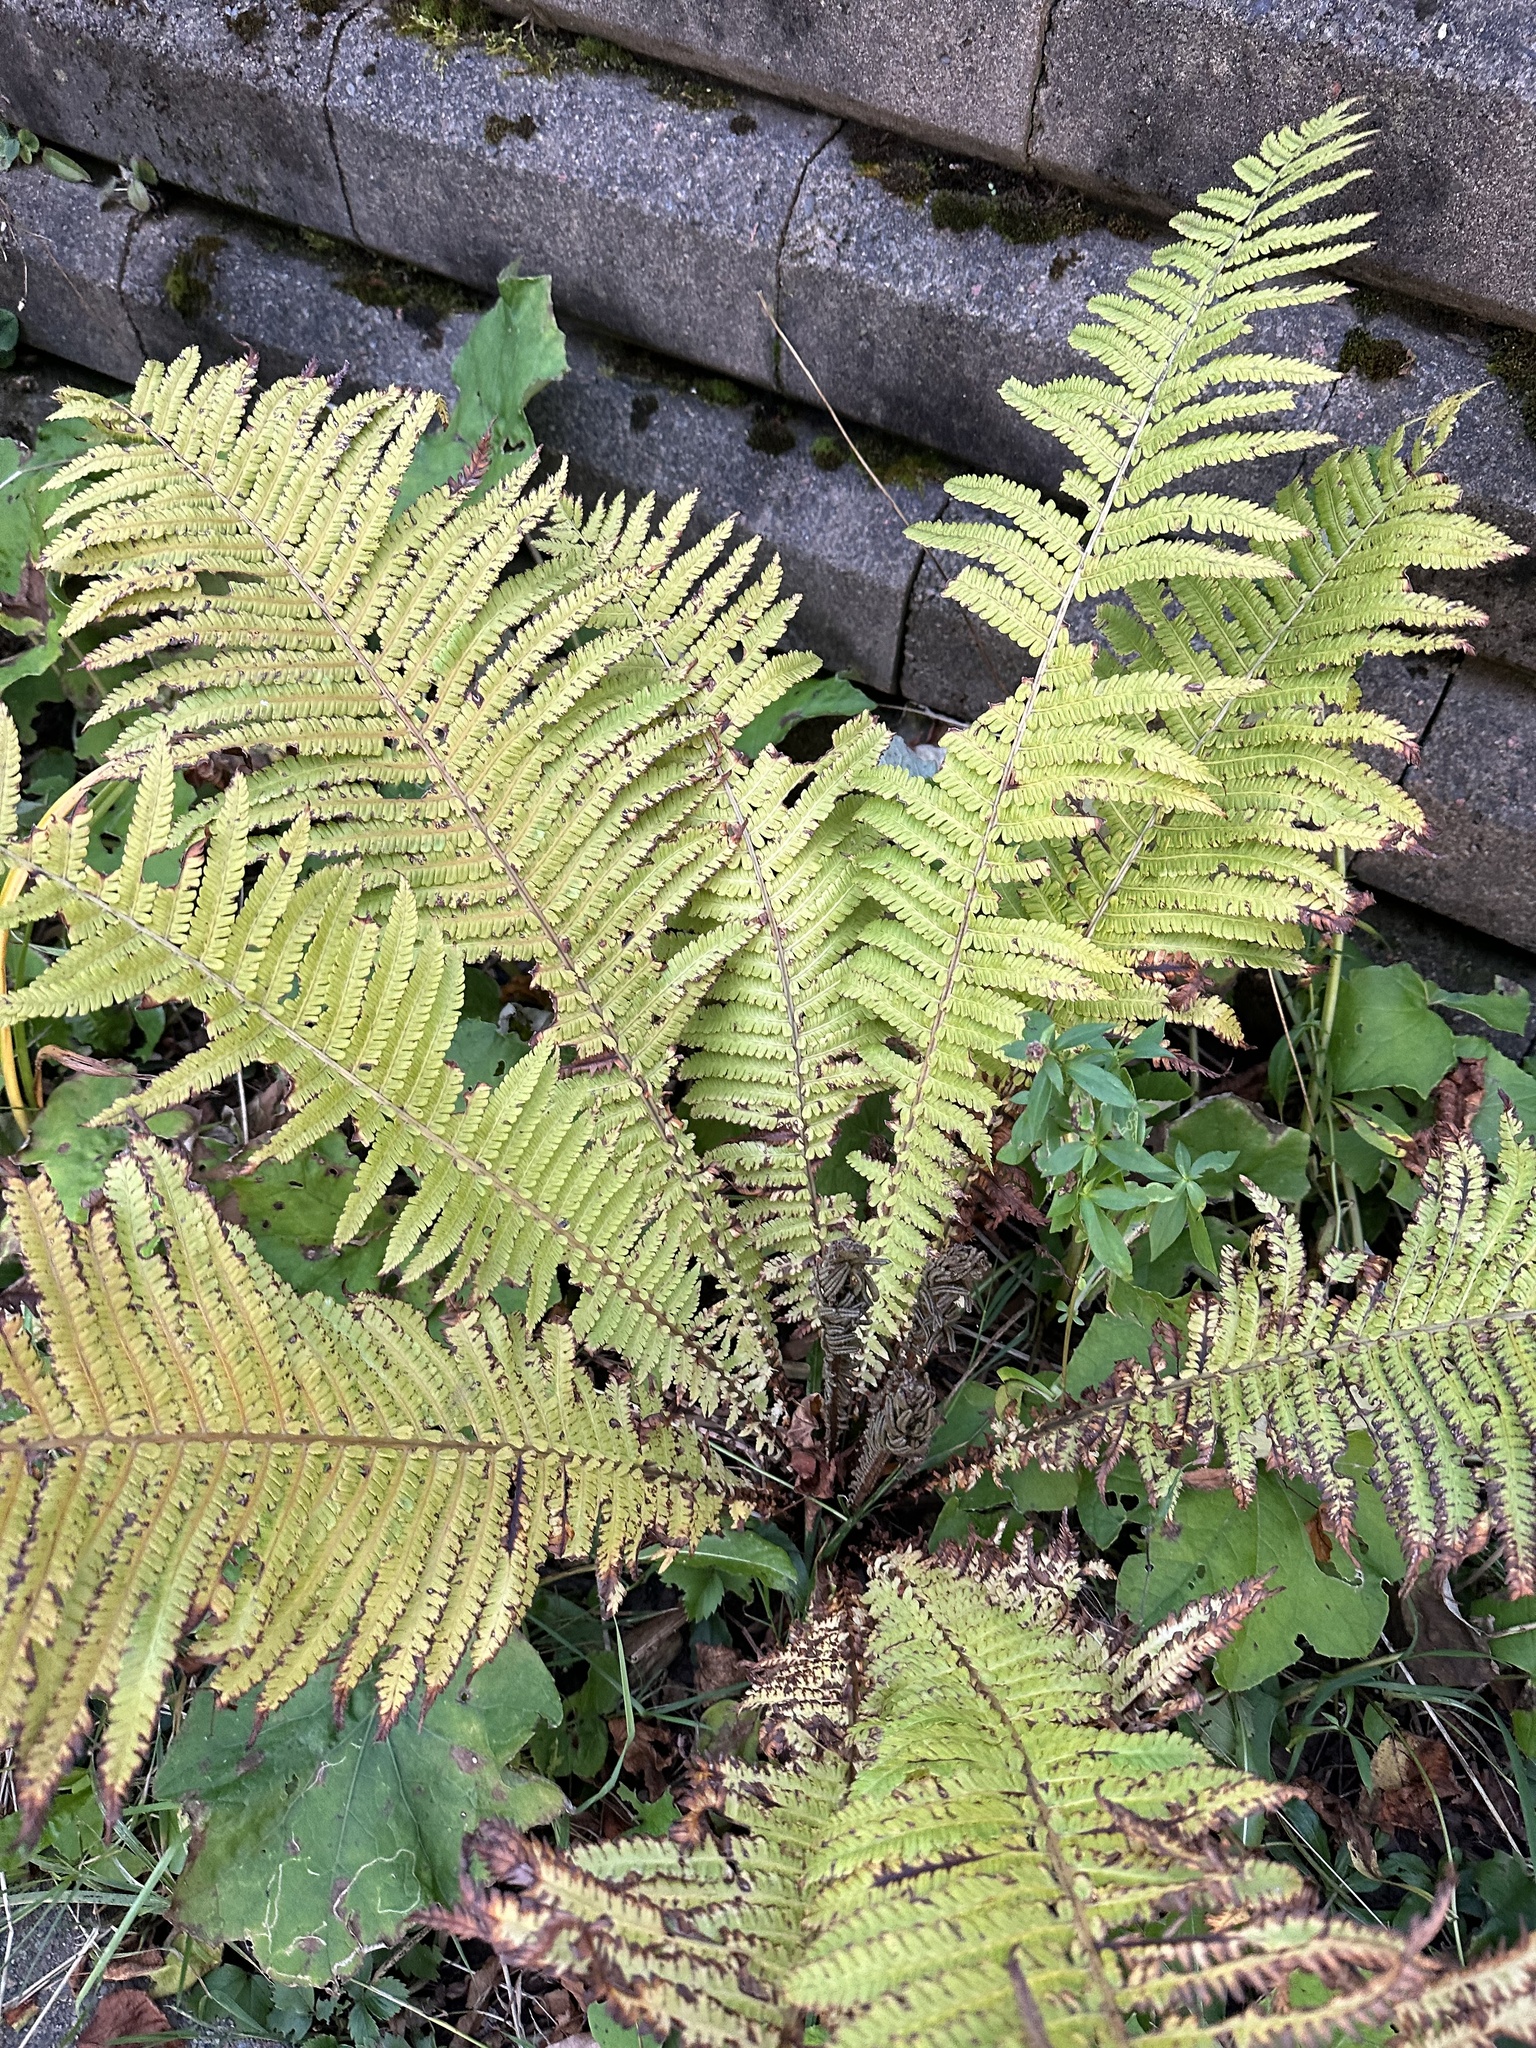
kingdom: Plantae
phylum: Tracheophyta
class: Polypodiopsida
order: Polypodiales
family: Onocleaceae
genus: Matteuccia
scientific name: Matteuccia struthiopteris
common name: Ostrich fern
